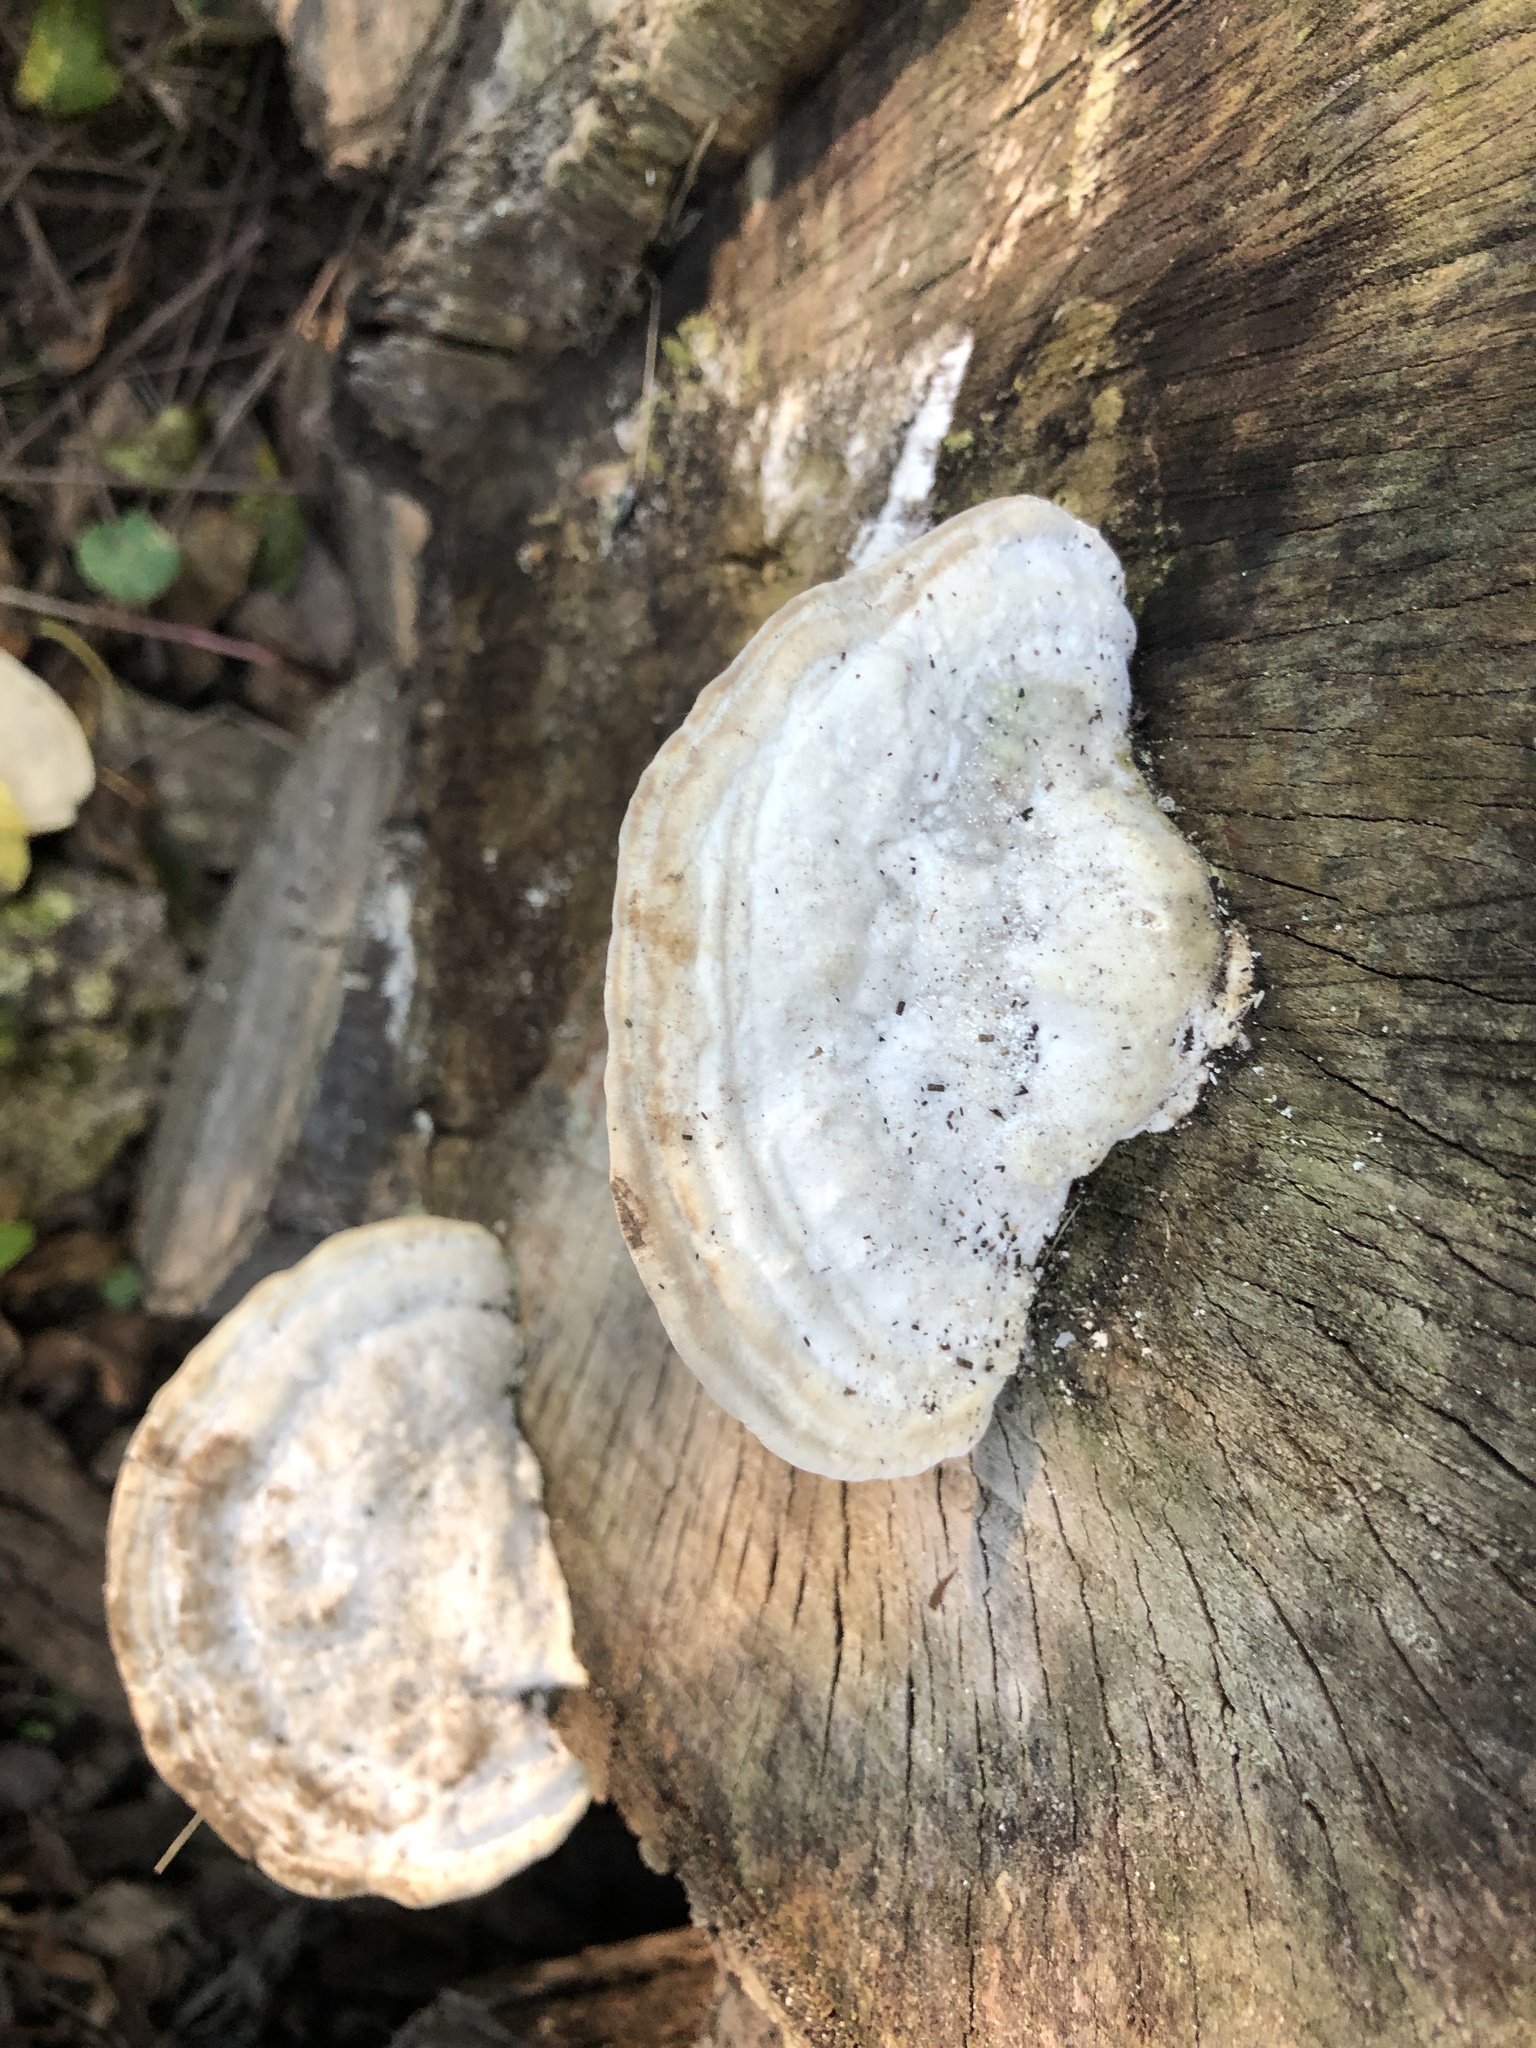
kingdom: Fungi
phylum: Basidiomycota
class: Agaricomycetes
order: Polyporales
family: Polyporaceae
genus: Trametes
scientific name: Trametes gibbosa
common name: Lumpy bracket
